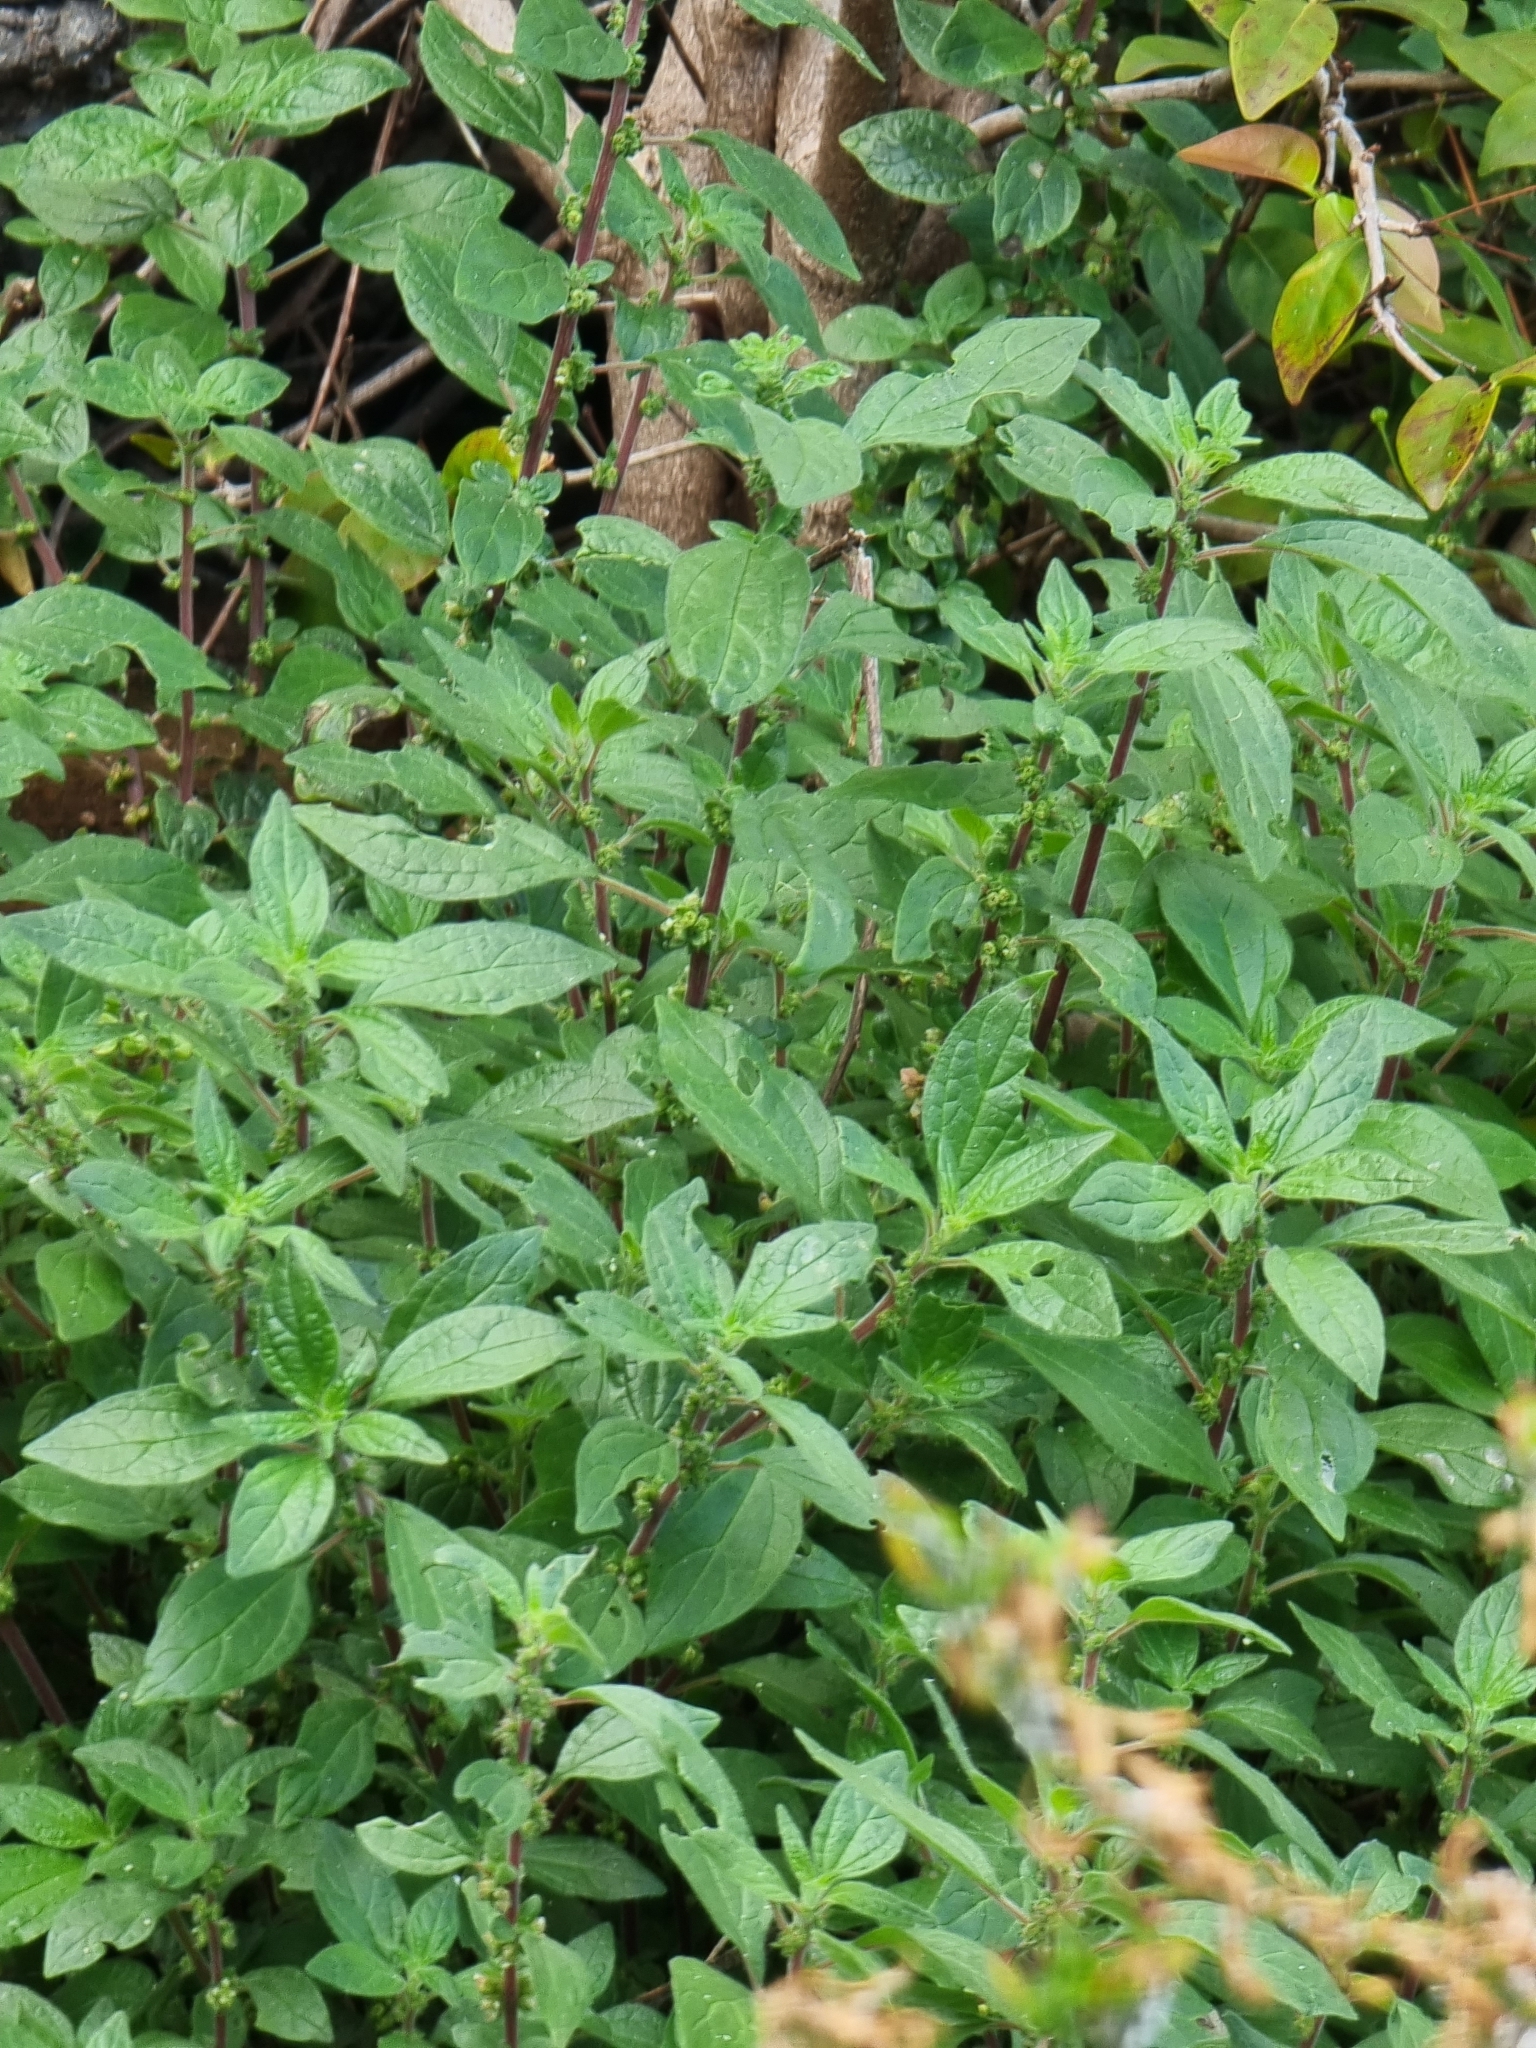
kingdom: Plantae
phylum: Tracheophyta
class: Magnoliopsida
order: Rosales
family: Urticaceae
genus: Parietaria
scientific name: Parietaria judaica
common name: Pellitory-of-the-wall
